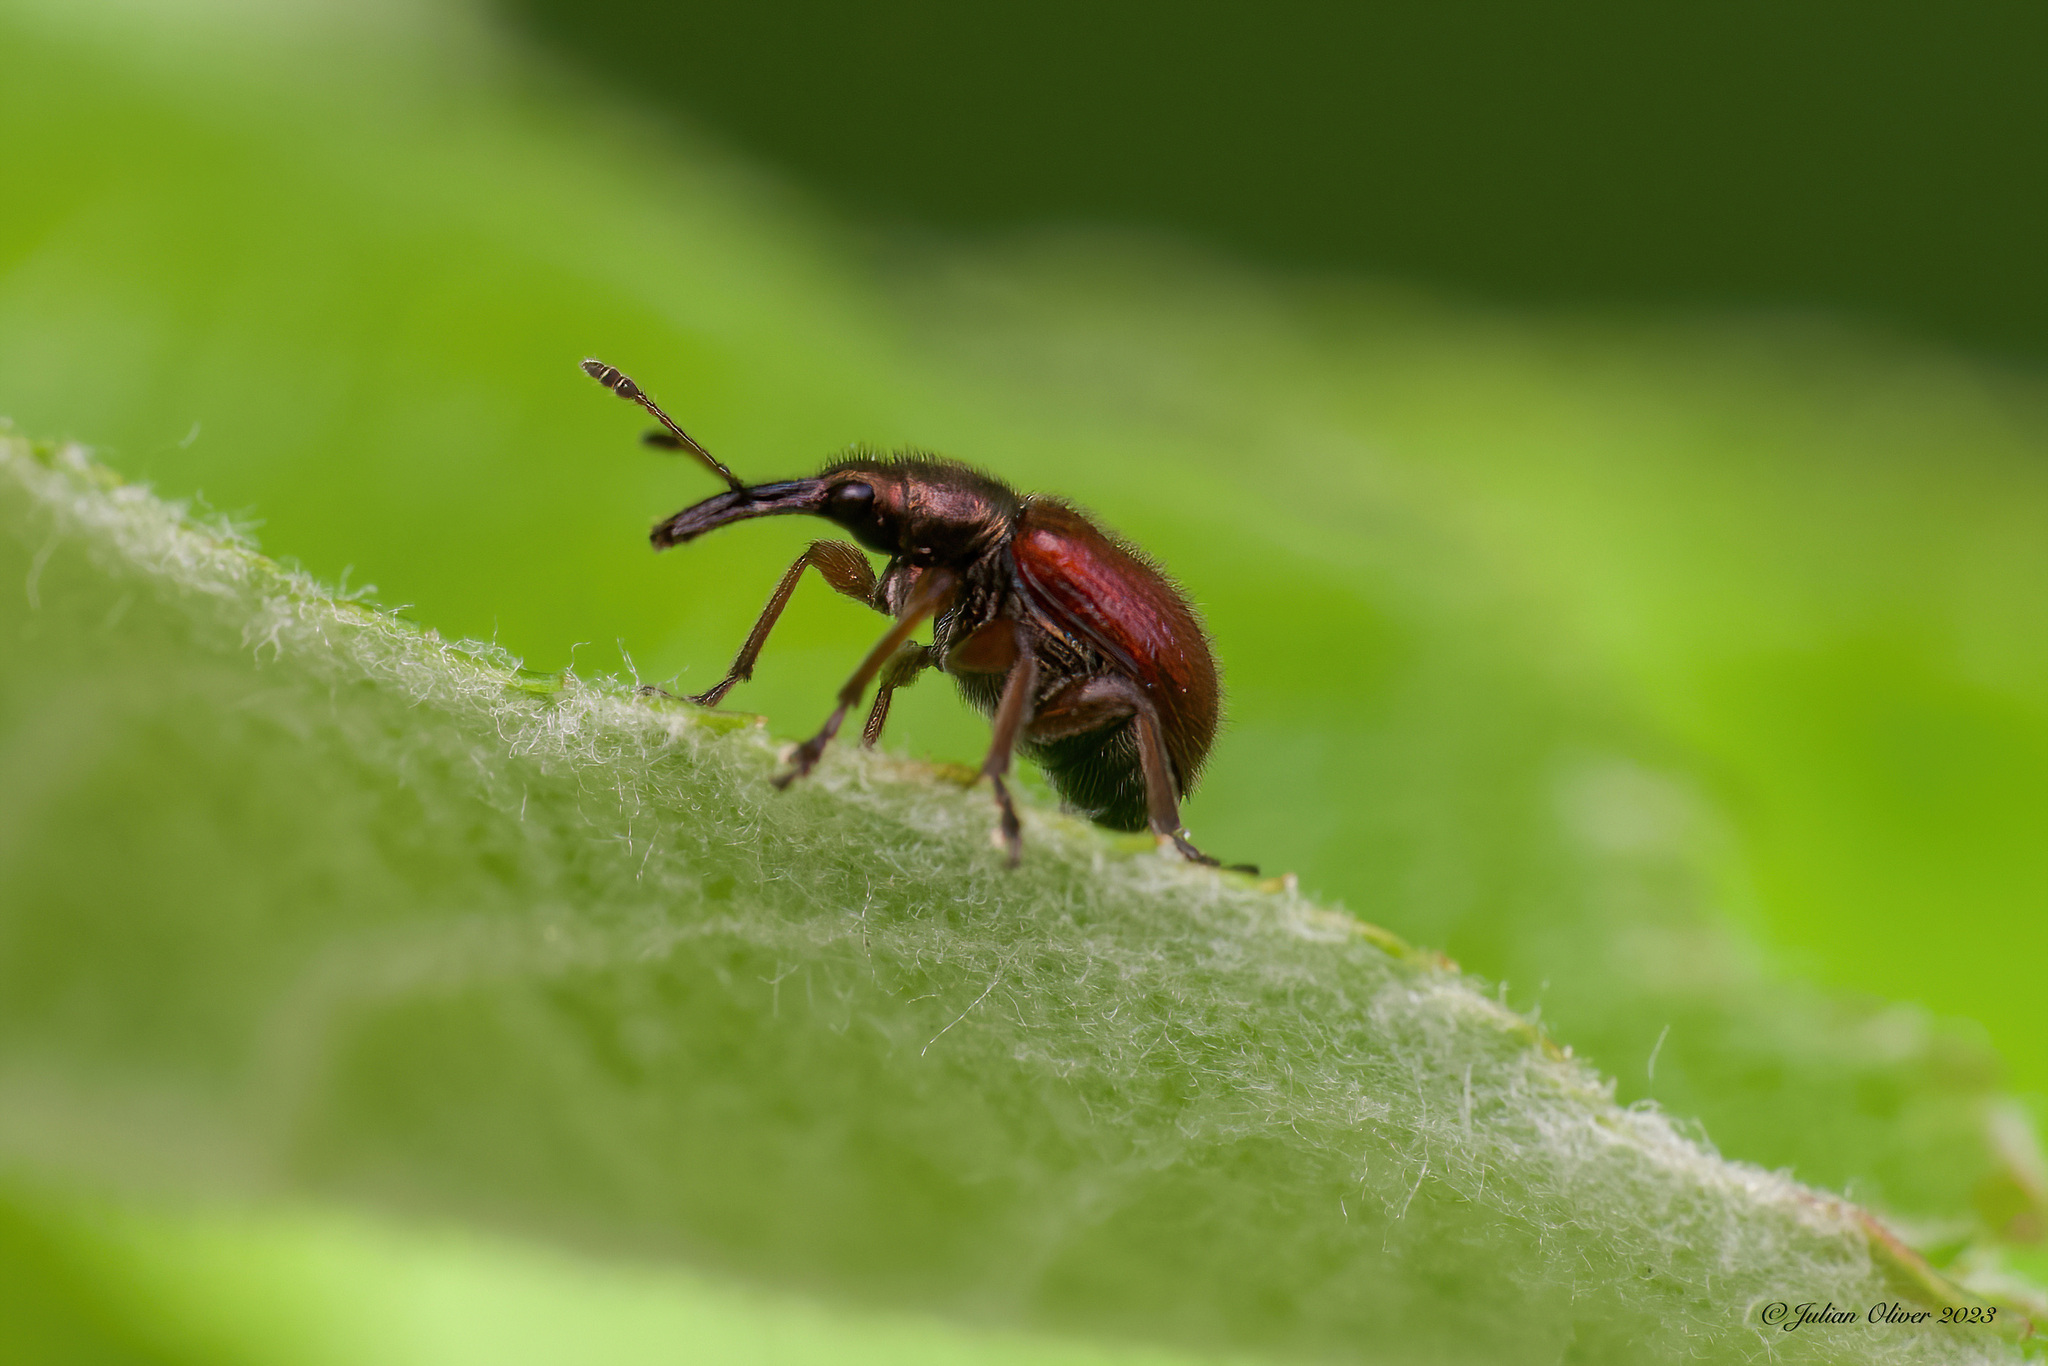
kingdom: Animalia
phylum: Arthropoda
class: Insecta
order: Coleoptera
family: Rhynchitidae
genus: Tatianaerhynchites
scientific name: Tatianaerhynchites aequatus
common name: Apple fruit rhynchites
